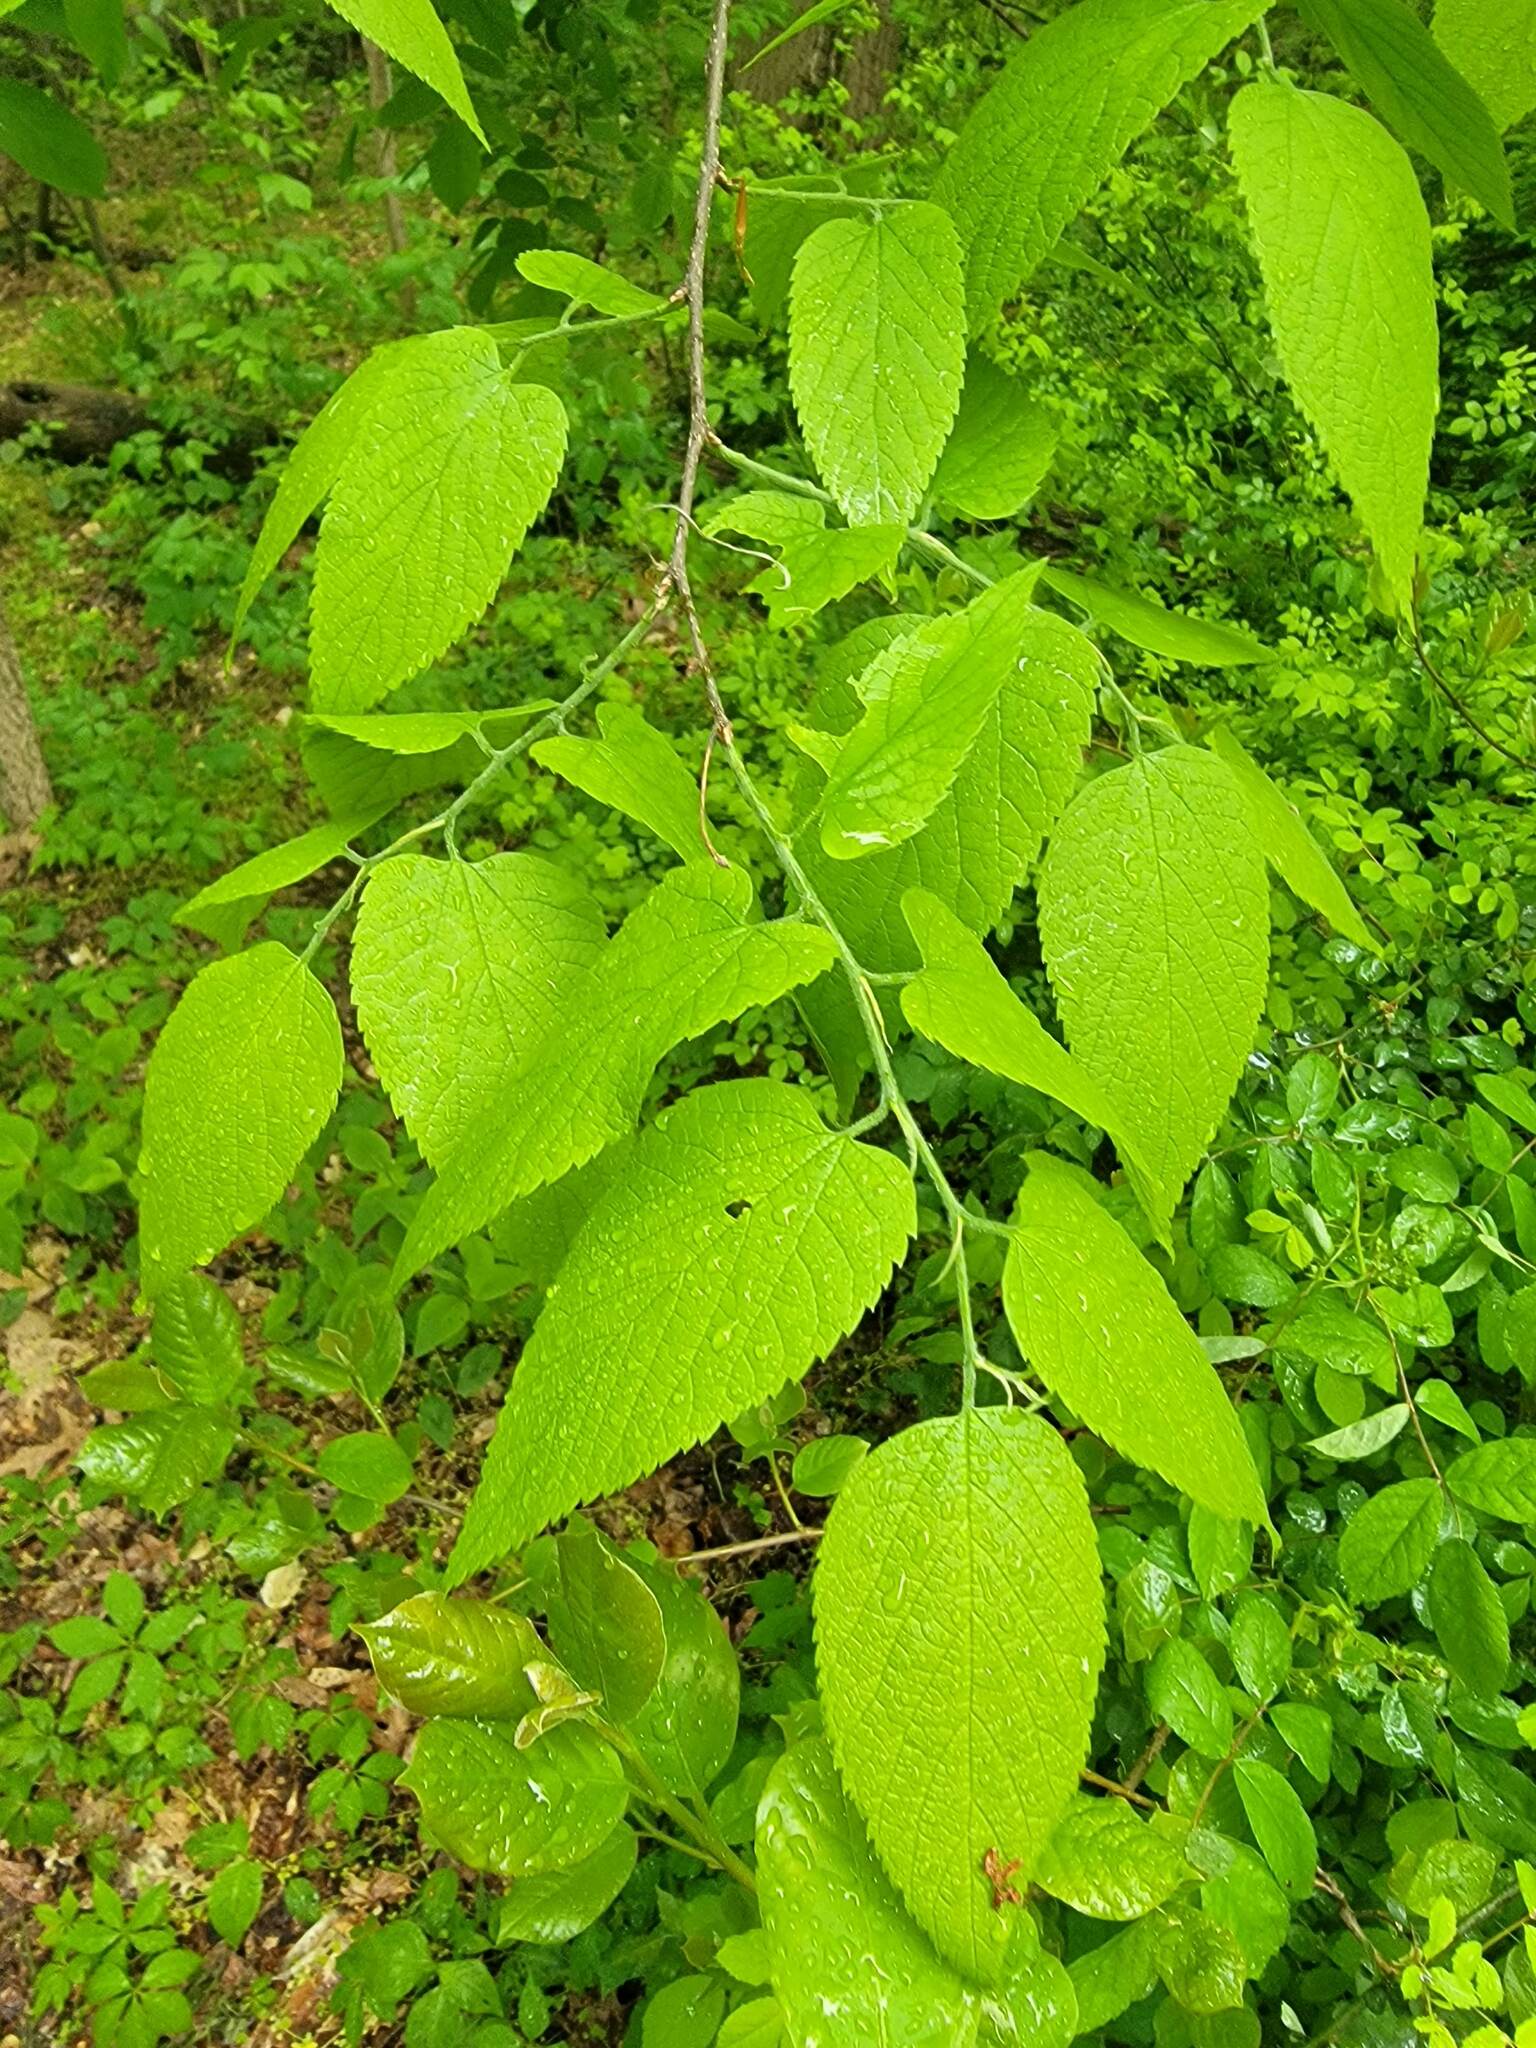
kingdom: Plantae
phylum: Tracheophyta
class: Magnoliopsida
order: Rosales
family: Cannabaceae
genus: Celtis
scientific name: Celtis occidentalis
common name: Common hackberry
